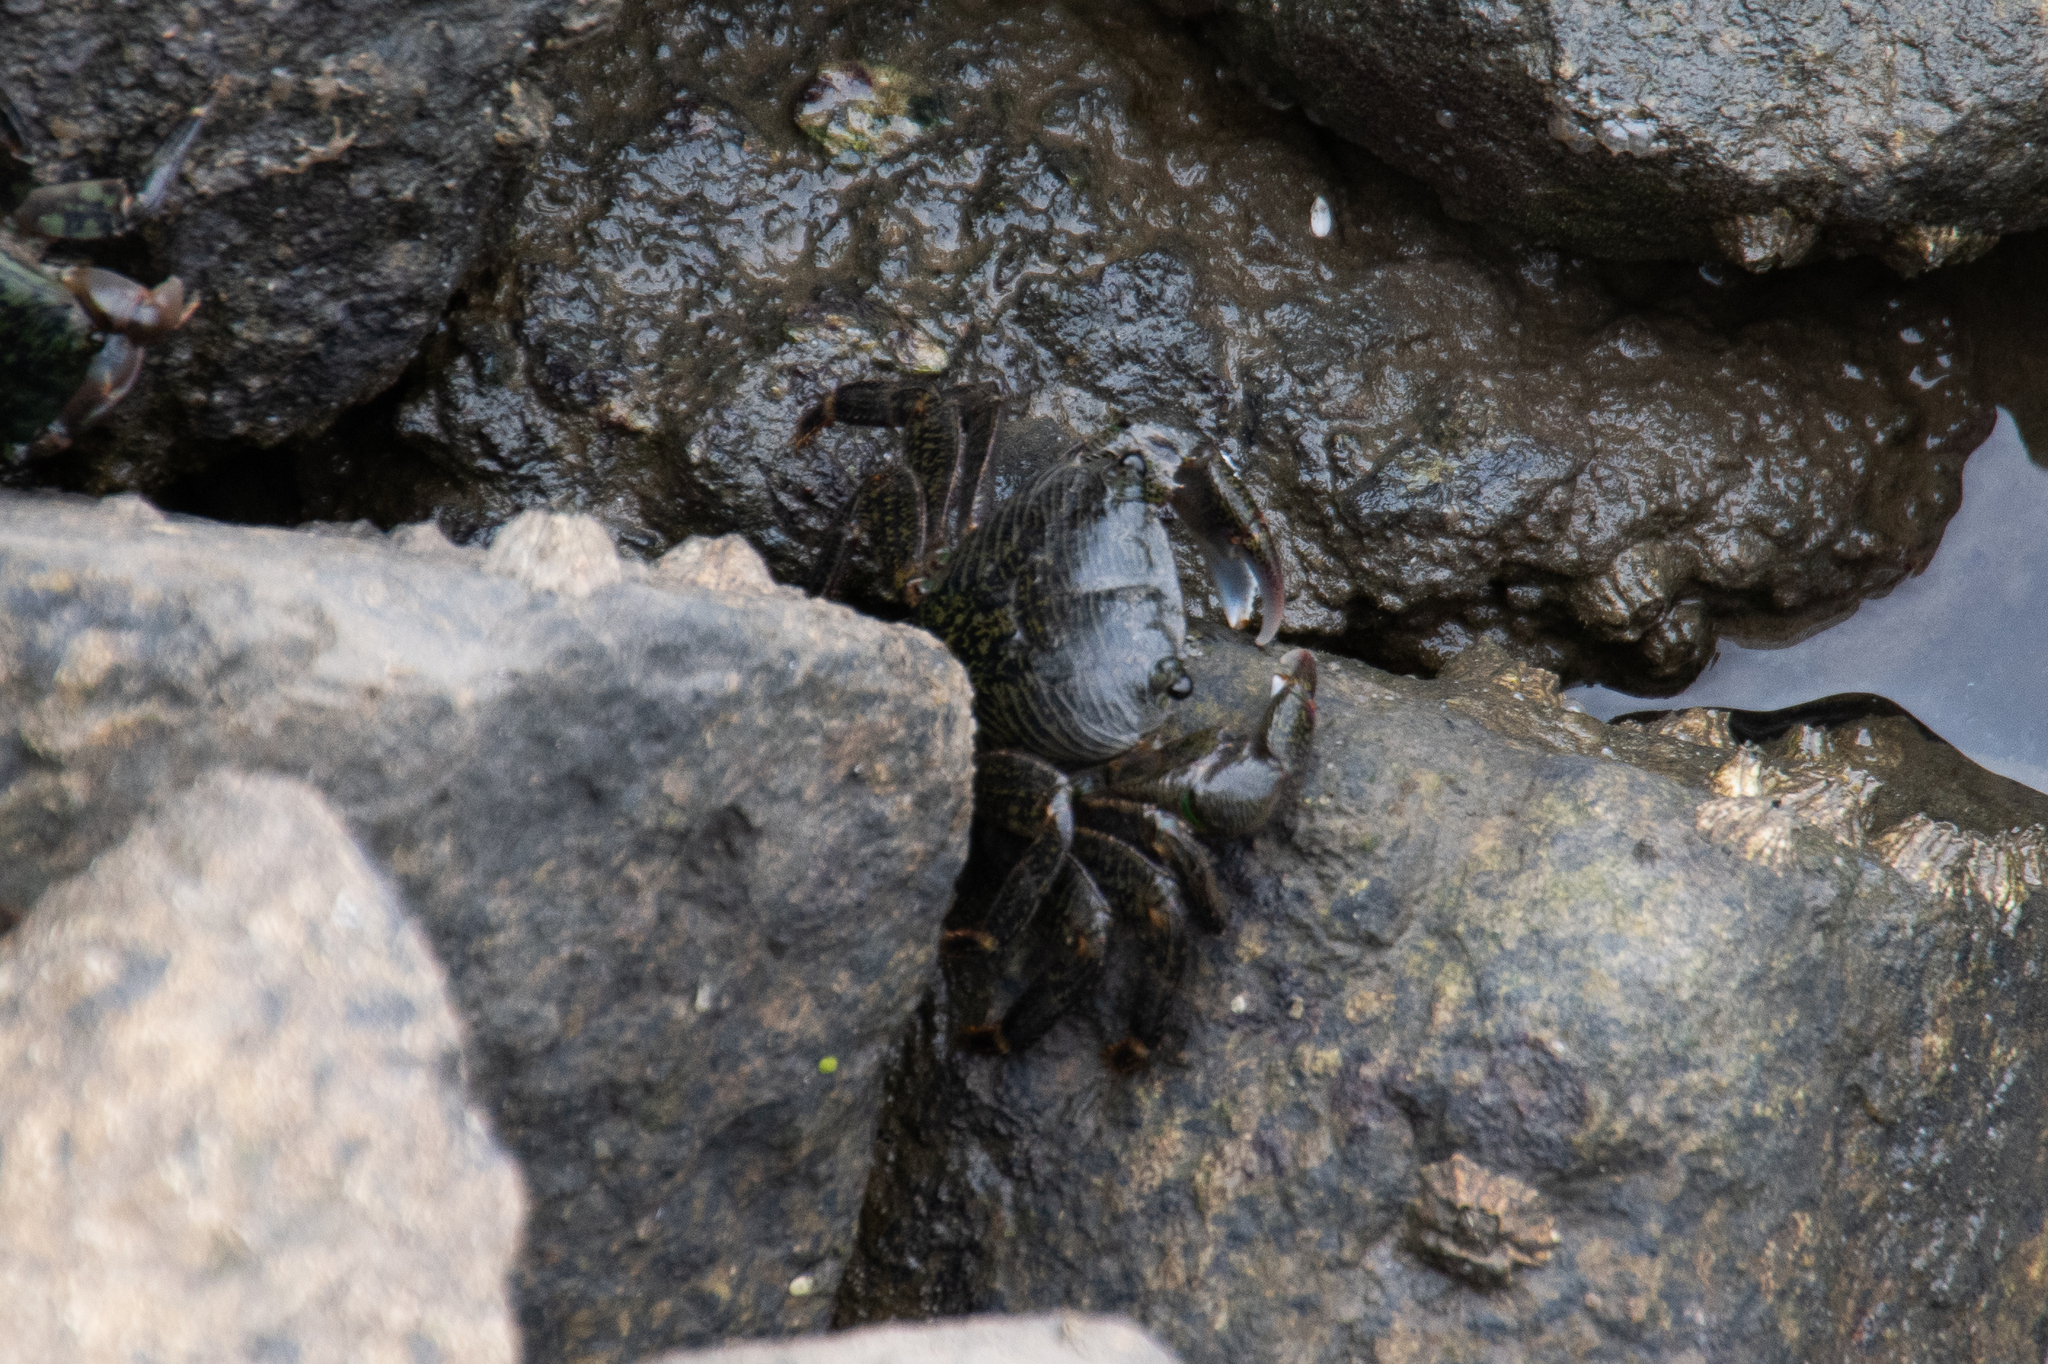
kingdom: Animalia
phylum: Arthropoda
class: Malacostraca
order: Decapoda
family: Grapsidae
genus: Pachygrapsus
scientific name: Pachygrapsus crassipes
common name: Striped shore crab
